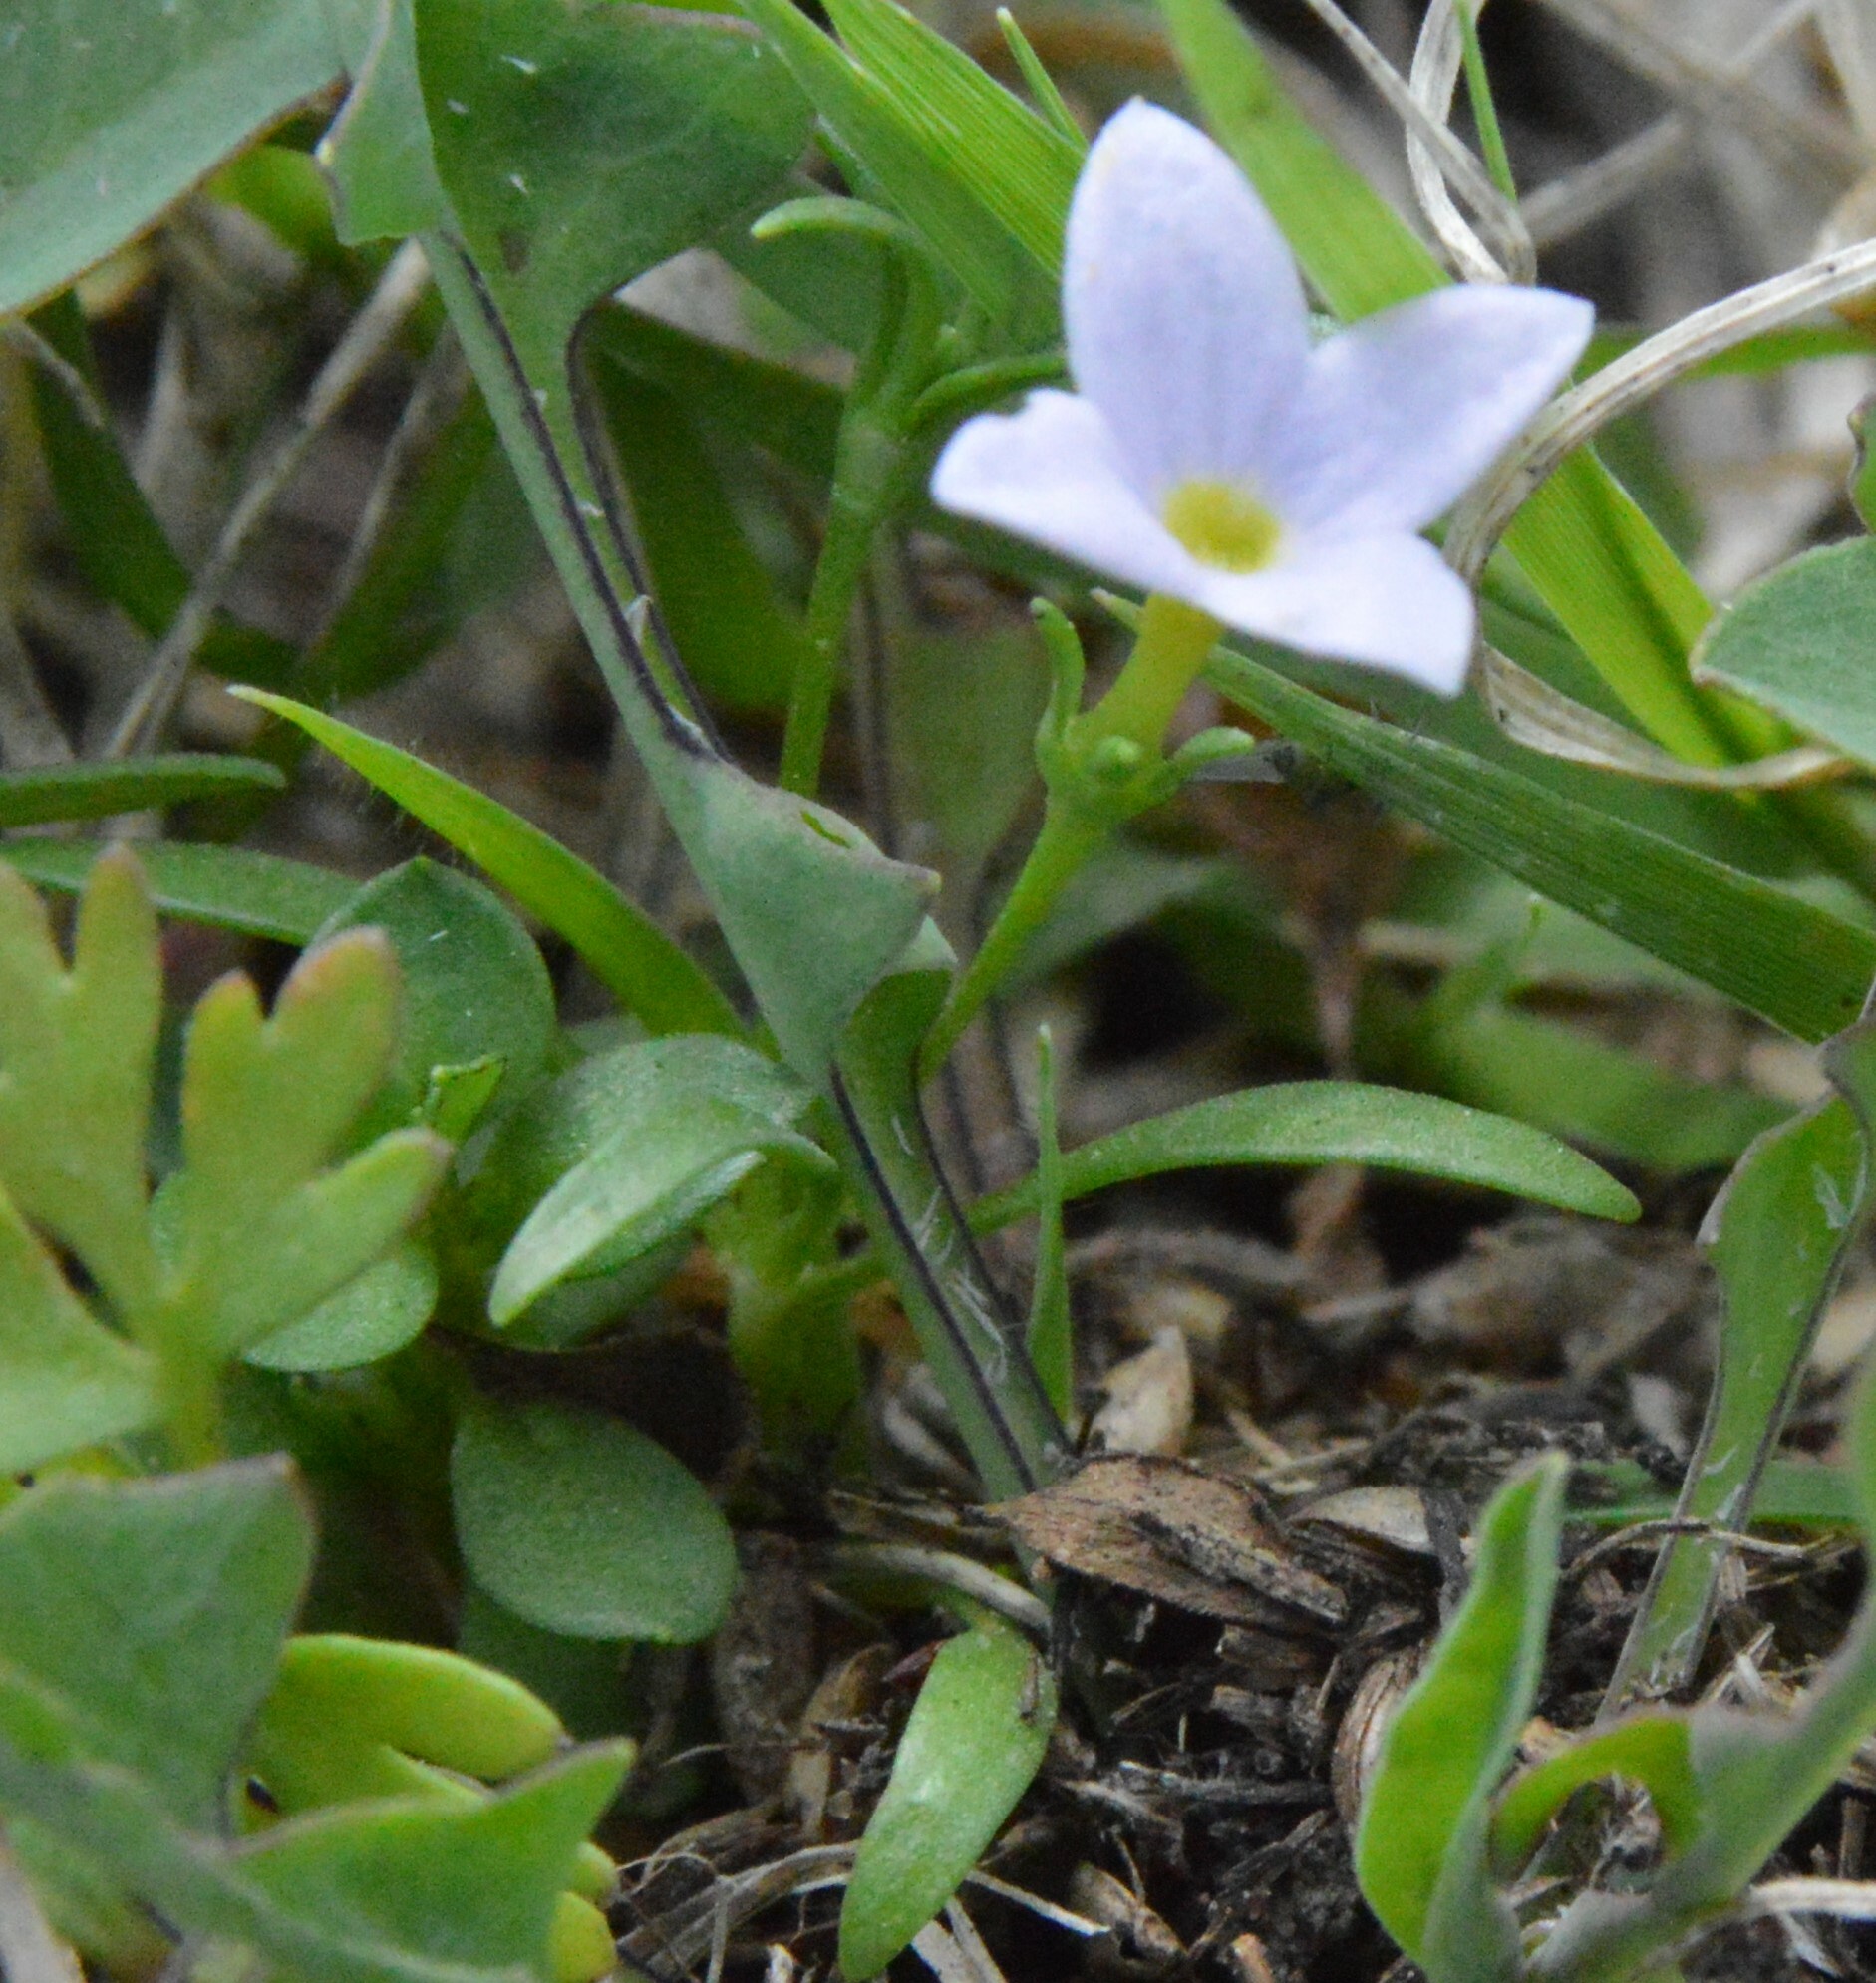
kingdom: Plantae
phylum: Tracheophyta
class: Magnoliopsida
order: Gentianales
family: Rubiaceae
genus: Houstonia
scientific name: Houstonia rosea
